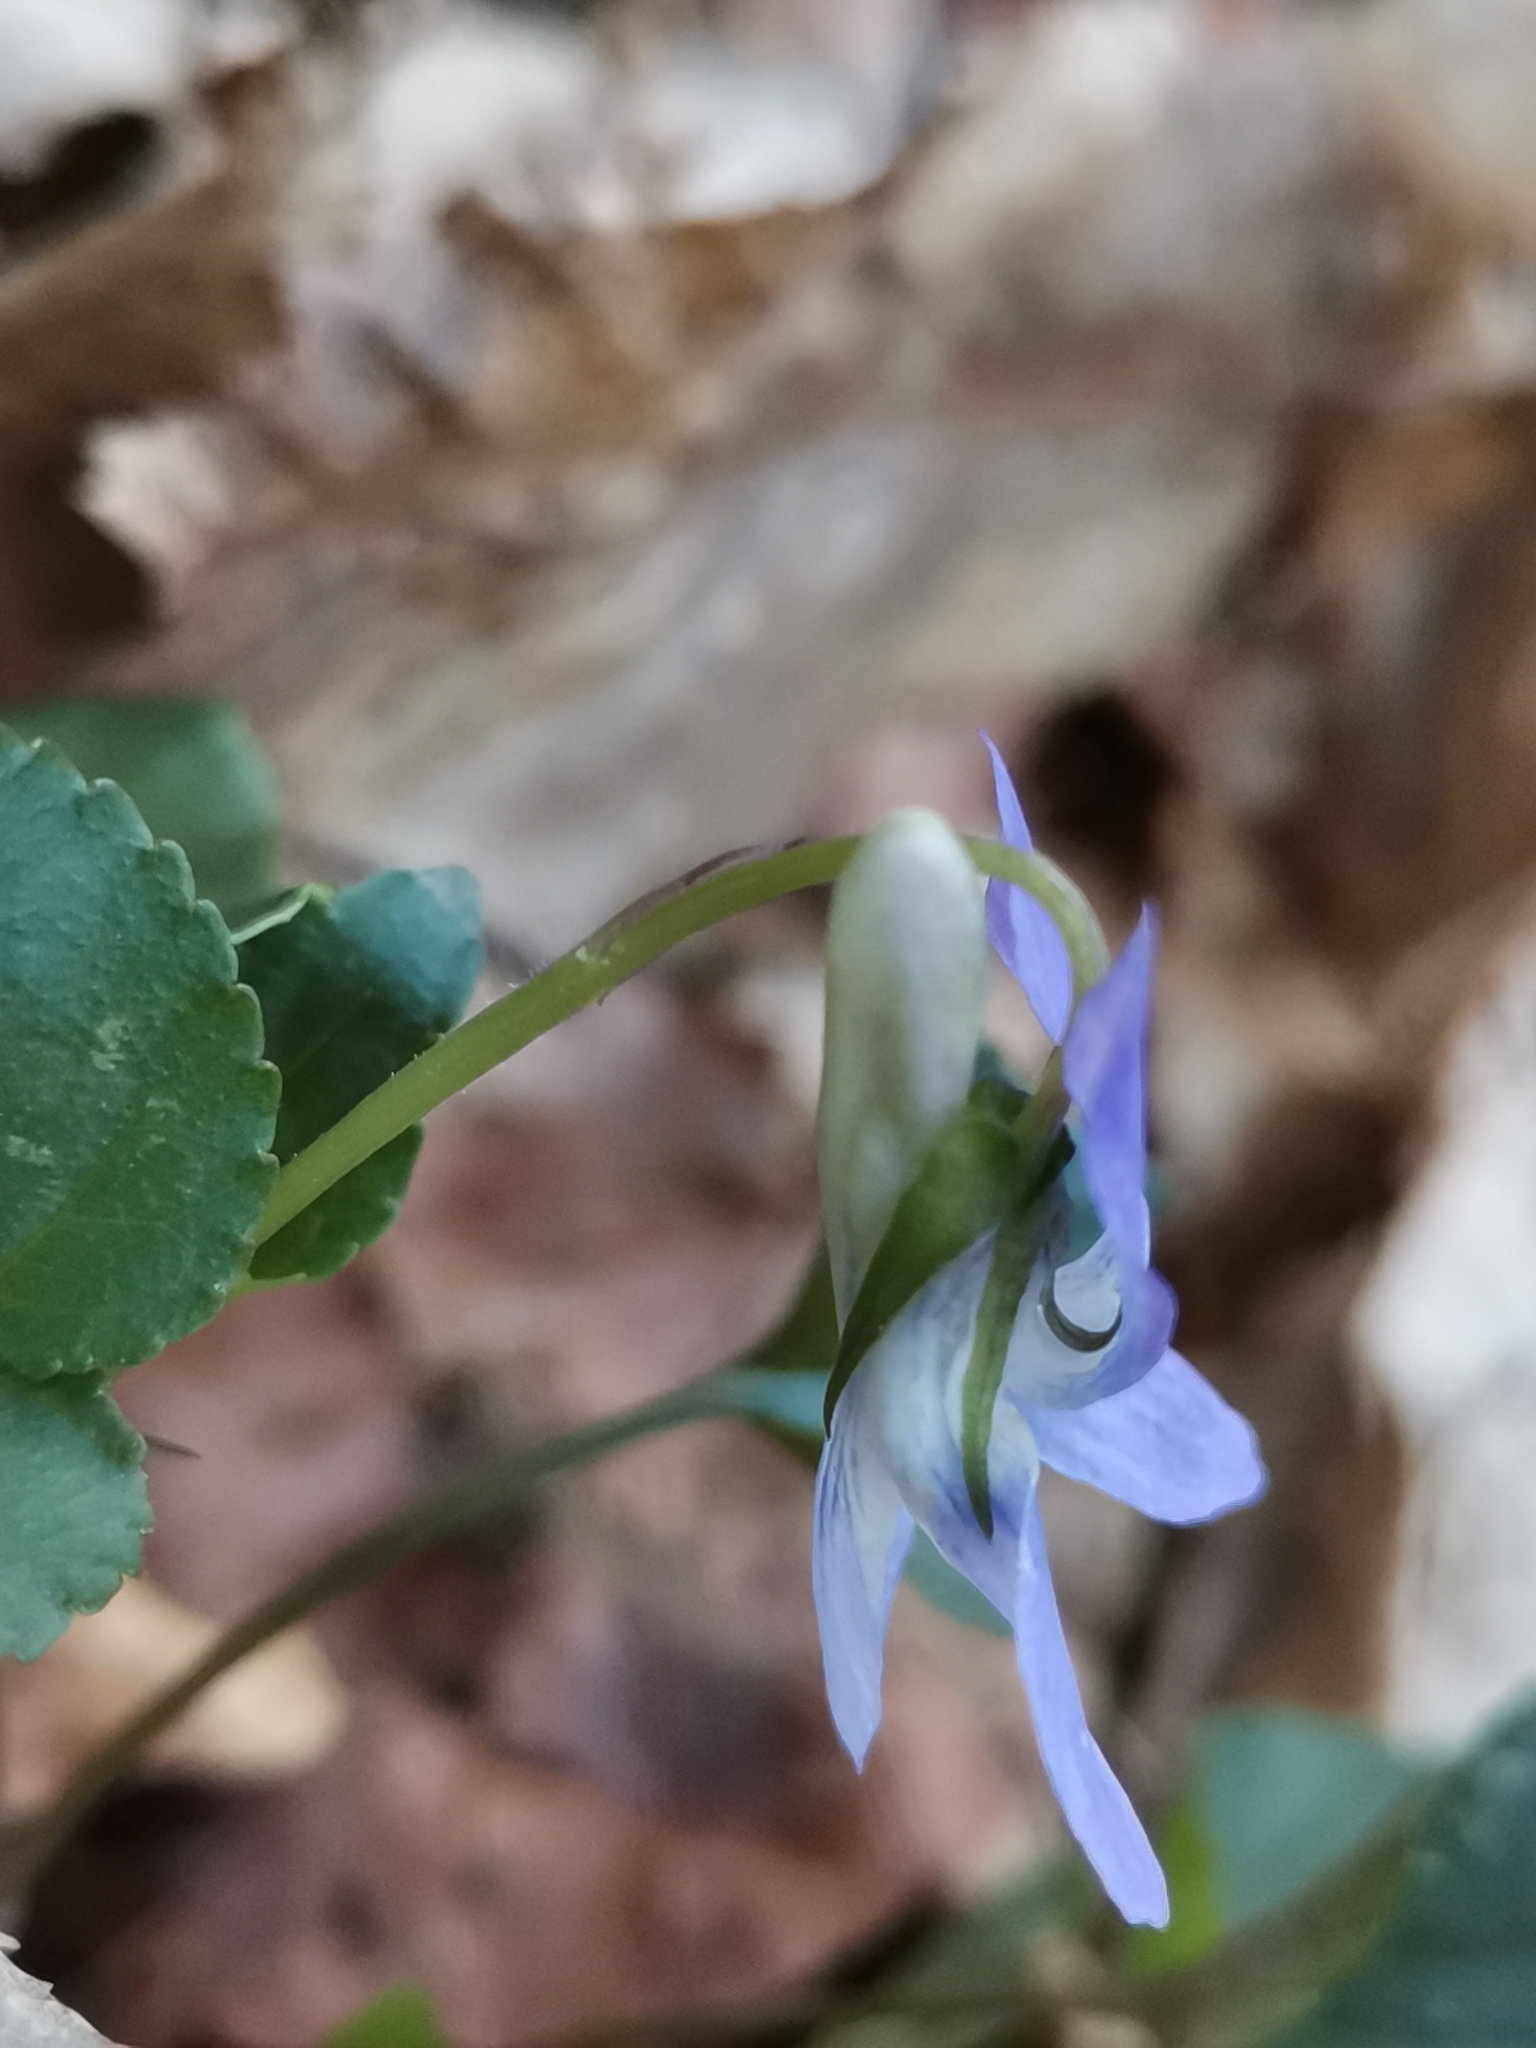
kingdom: Plantae
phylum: Tracheophyta
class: Magnoliopsida
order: Malpighiales
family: Violaceae
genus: Viola
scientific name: Viola riviniana
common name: Common dog-violet
